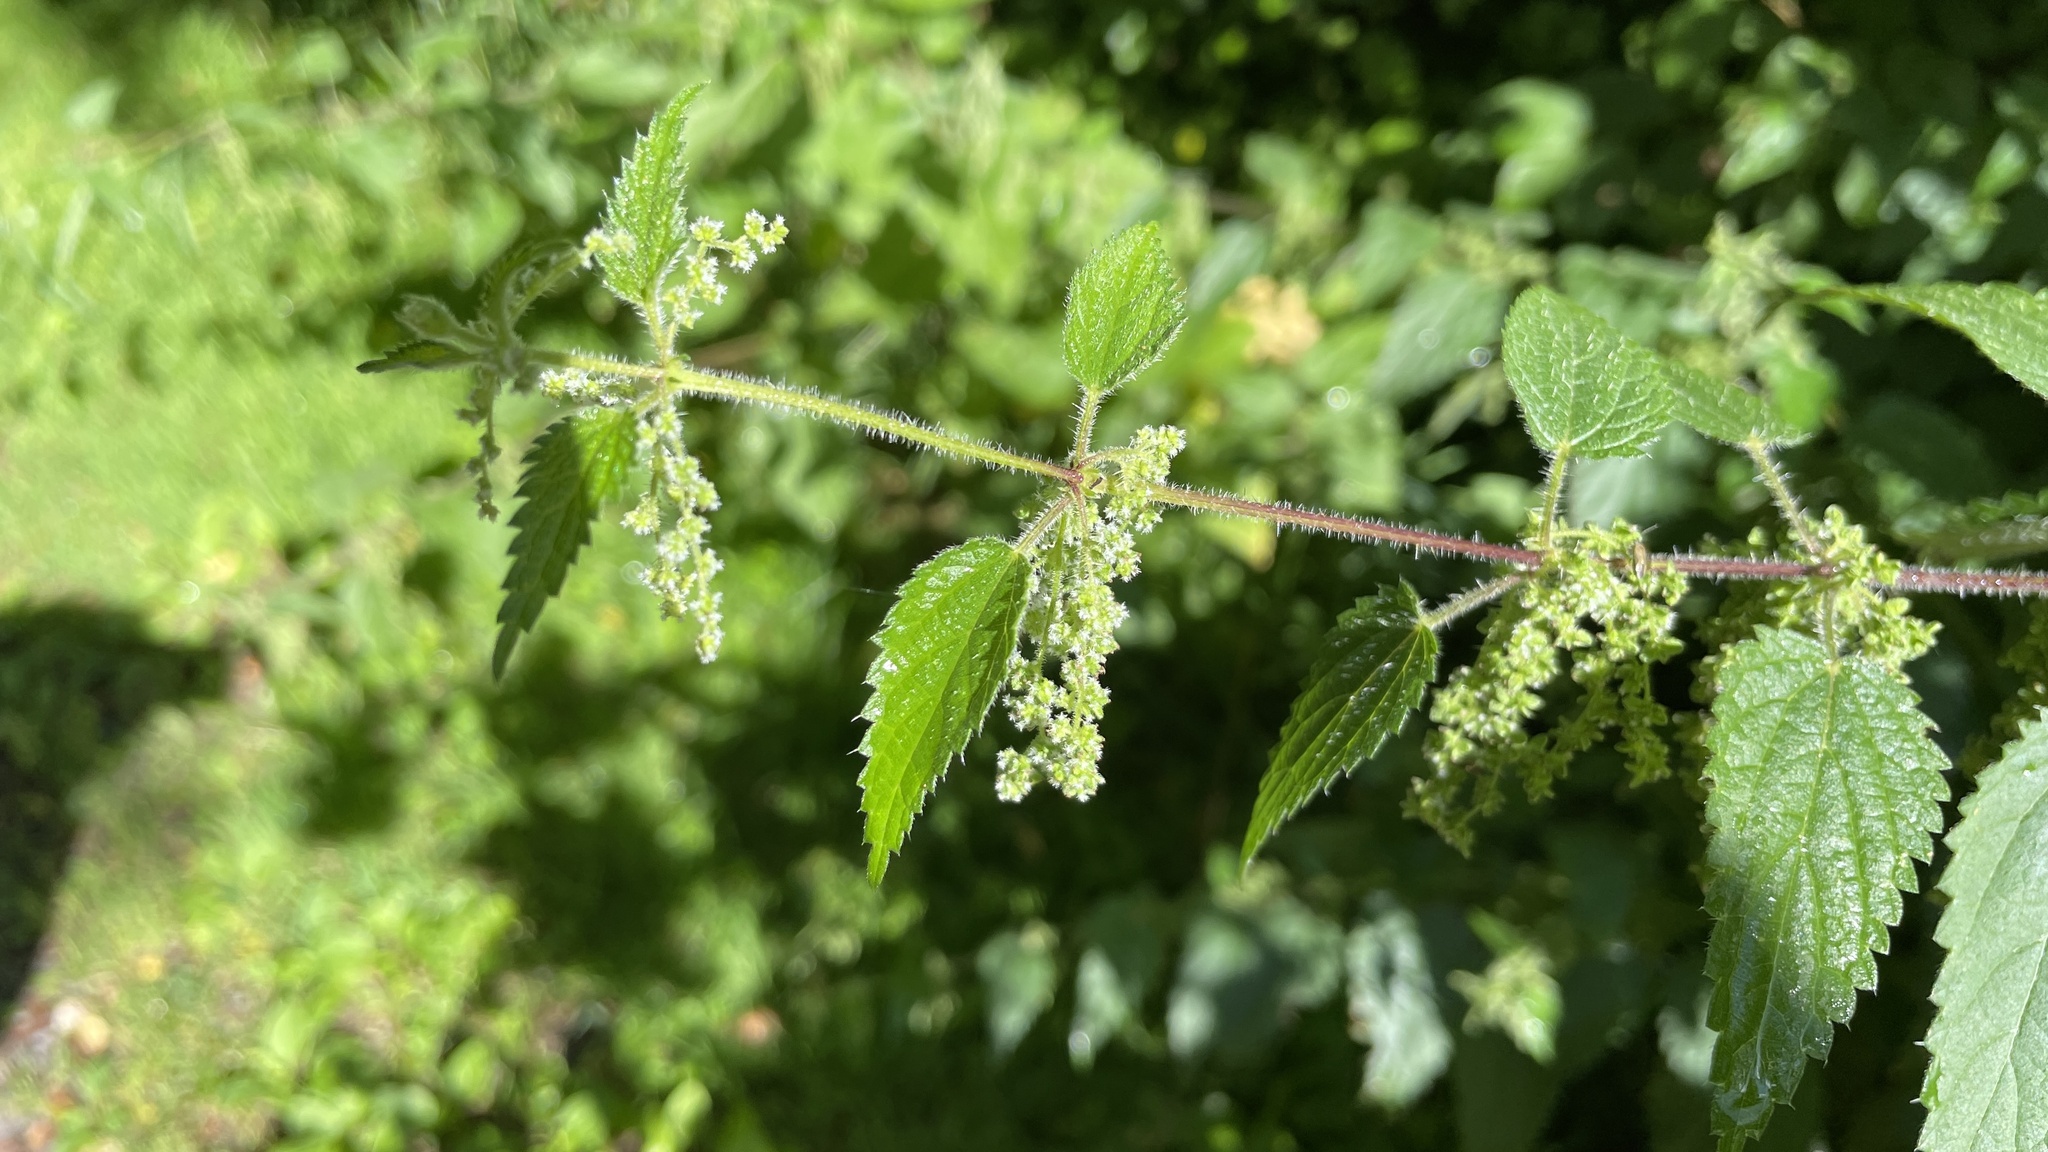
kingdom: Plantae
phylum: Tracheophyta
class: Magnoliopsida
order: Rosales
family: Urticaceae
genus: Urtica
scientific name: Urtica dioica
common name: Common nettle
